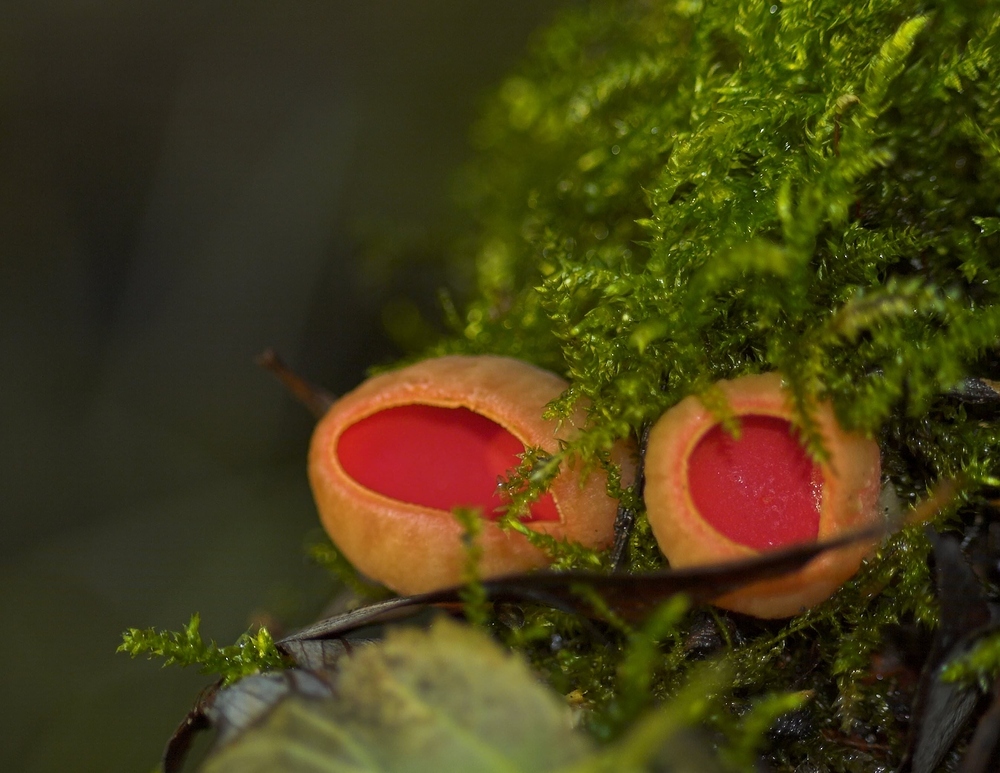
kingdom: Fungi
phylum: Ascomycota
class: Pezizomycetes
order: Pezizales
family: Sarcoscyphaceae
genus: Sarcoscypha
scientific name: Sarcoscypha
